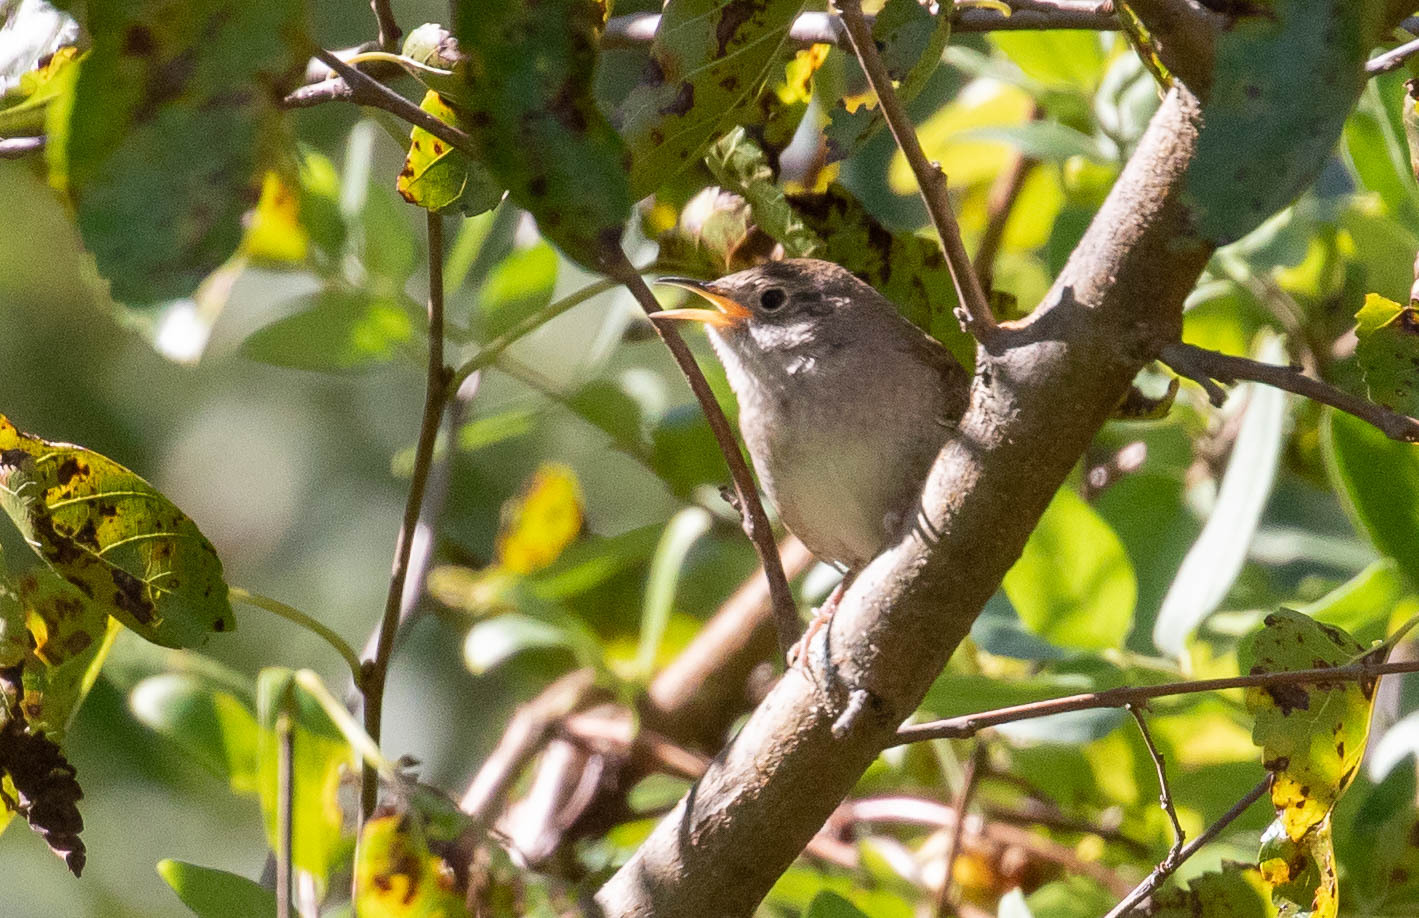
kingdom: Animalia
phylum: Chordata
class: Aves
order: Passeriformes
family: Troglodytidae
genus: Troglodytes
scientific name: Troglodytes aedon
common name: House wren
